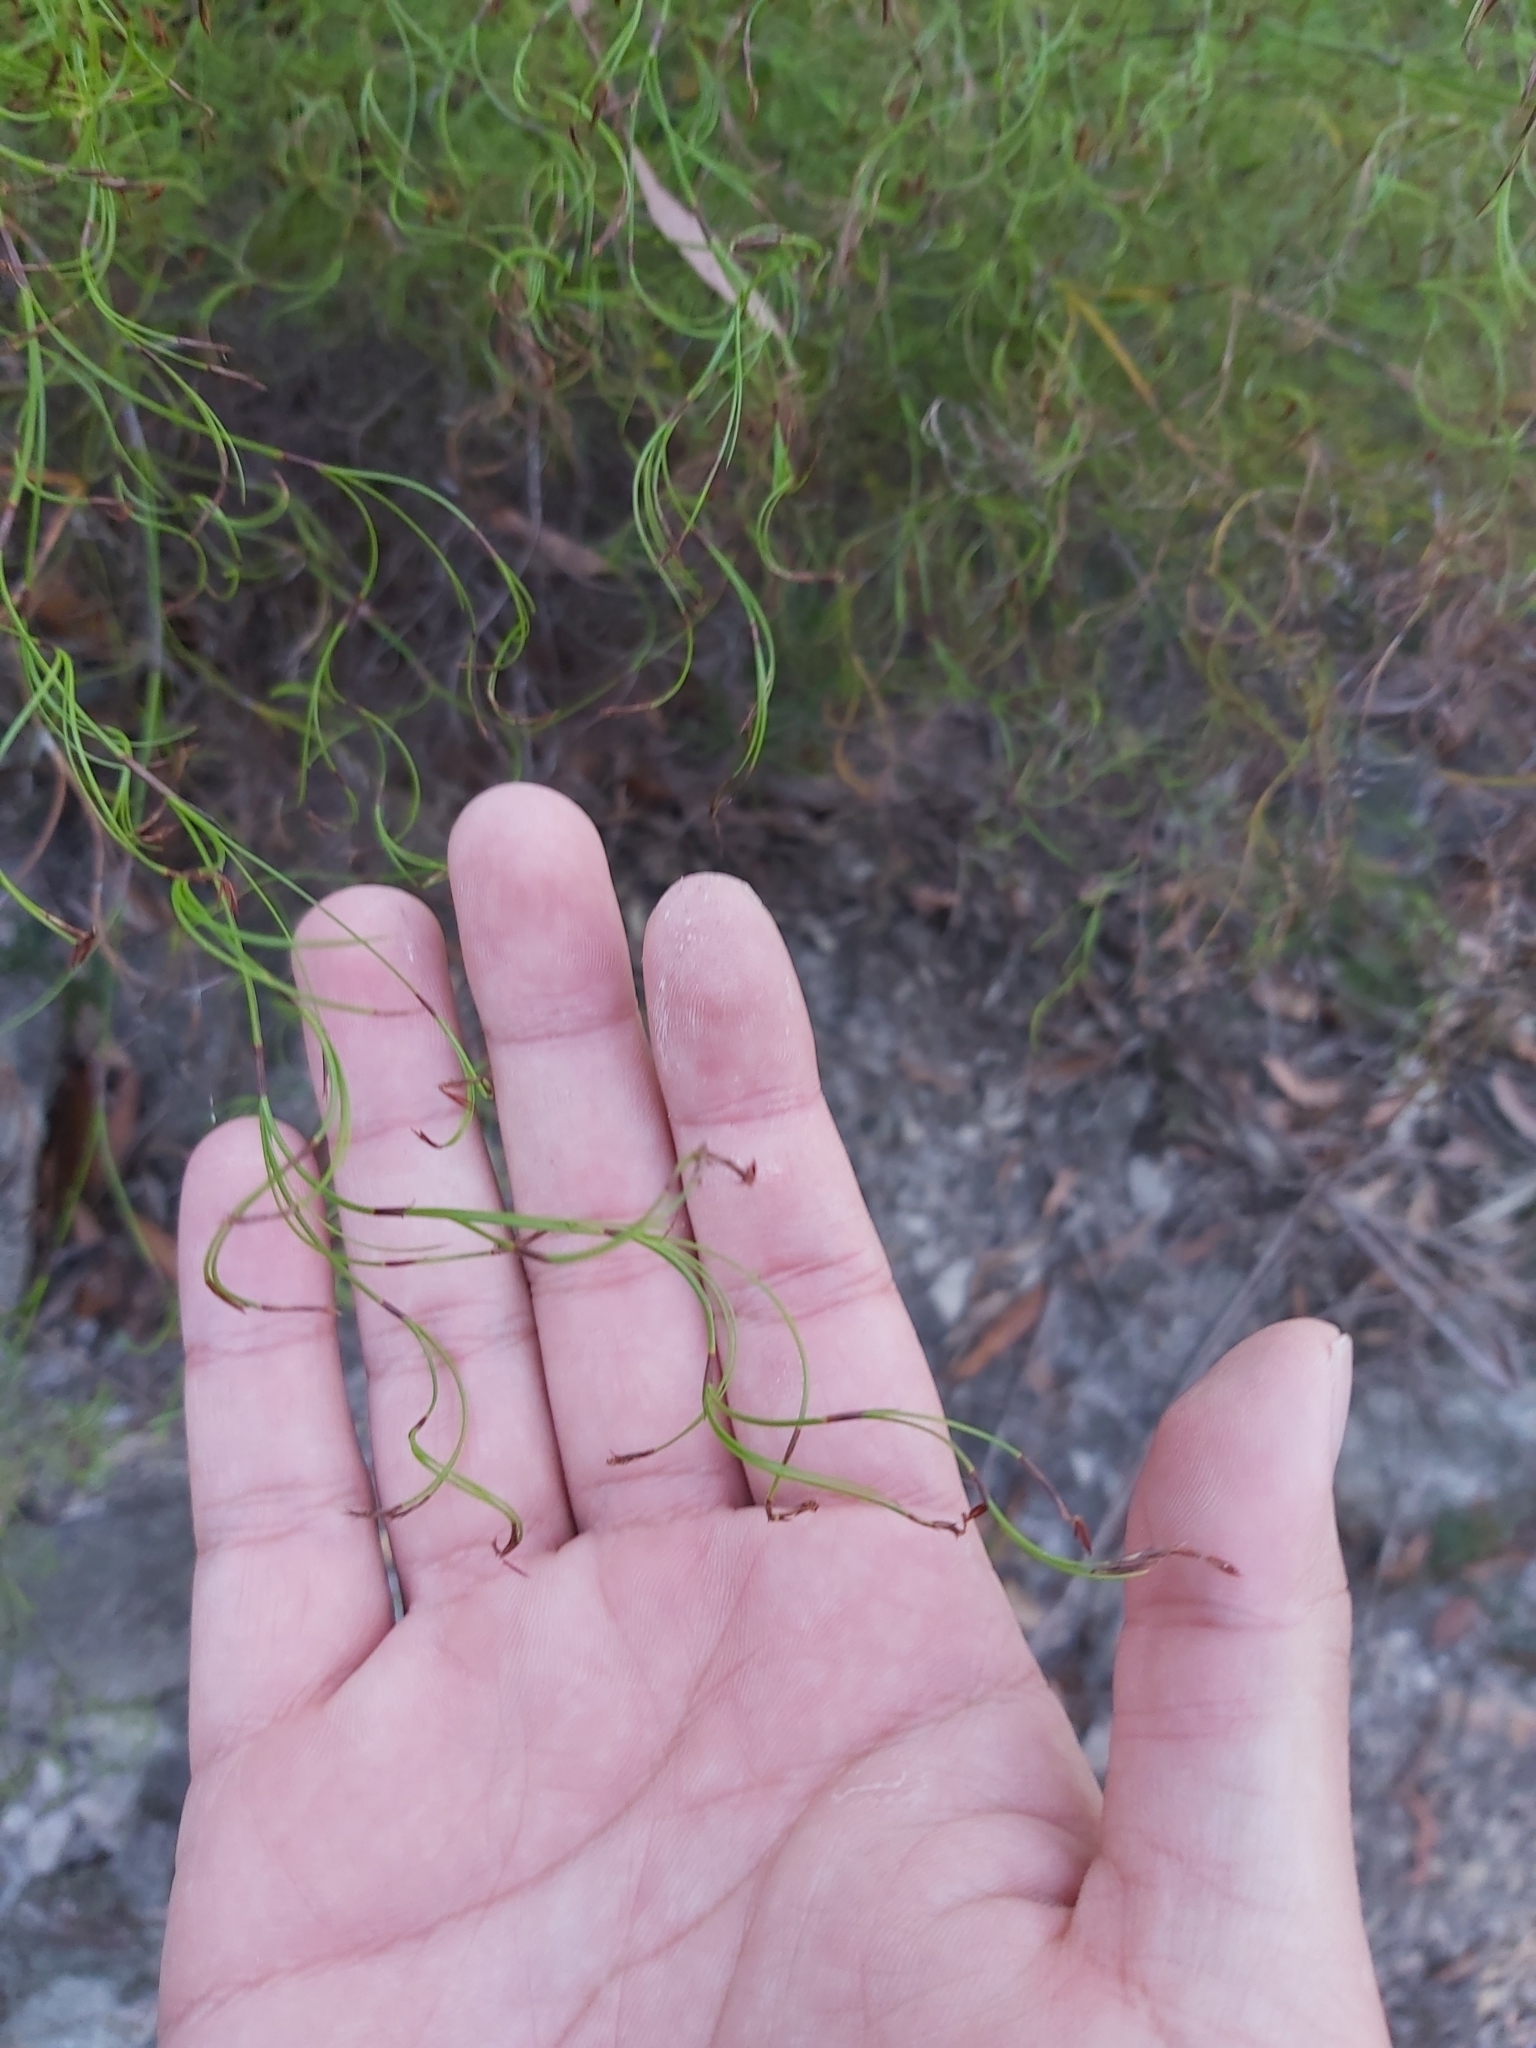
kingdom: Plantae
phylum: Tracheophyta
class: Liliopsida
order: Poales
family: Cyperaceae
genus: Caustis
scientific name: Caustis flexuosa
